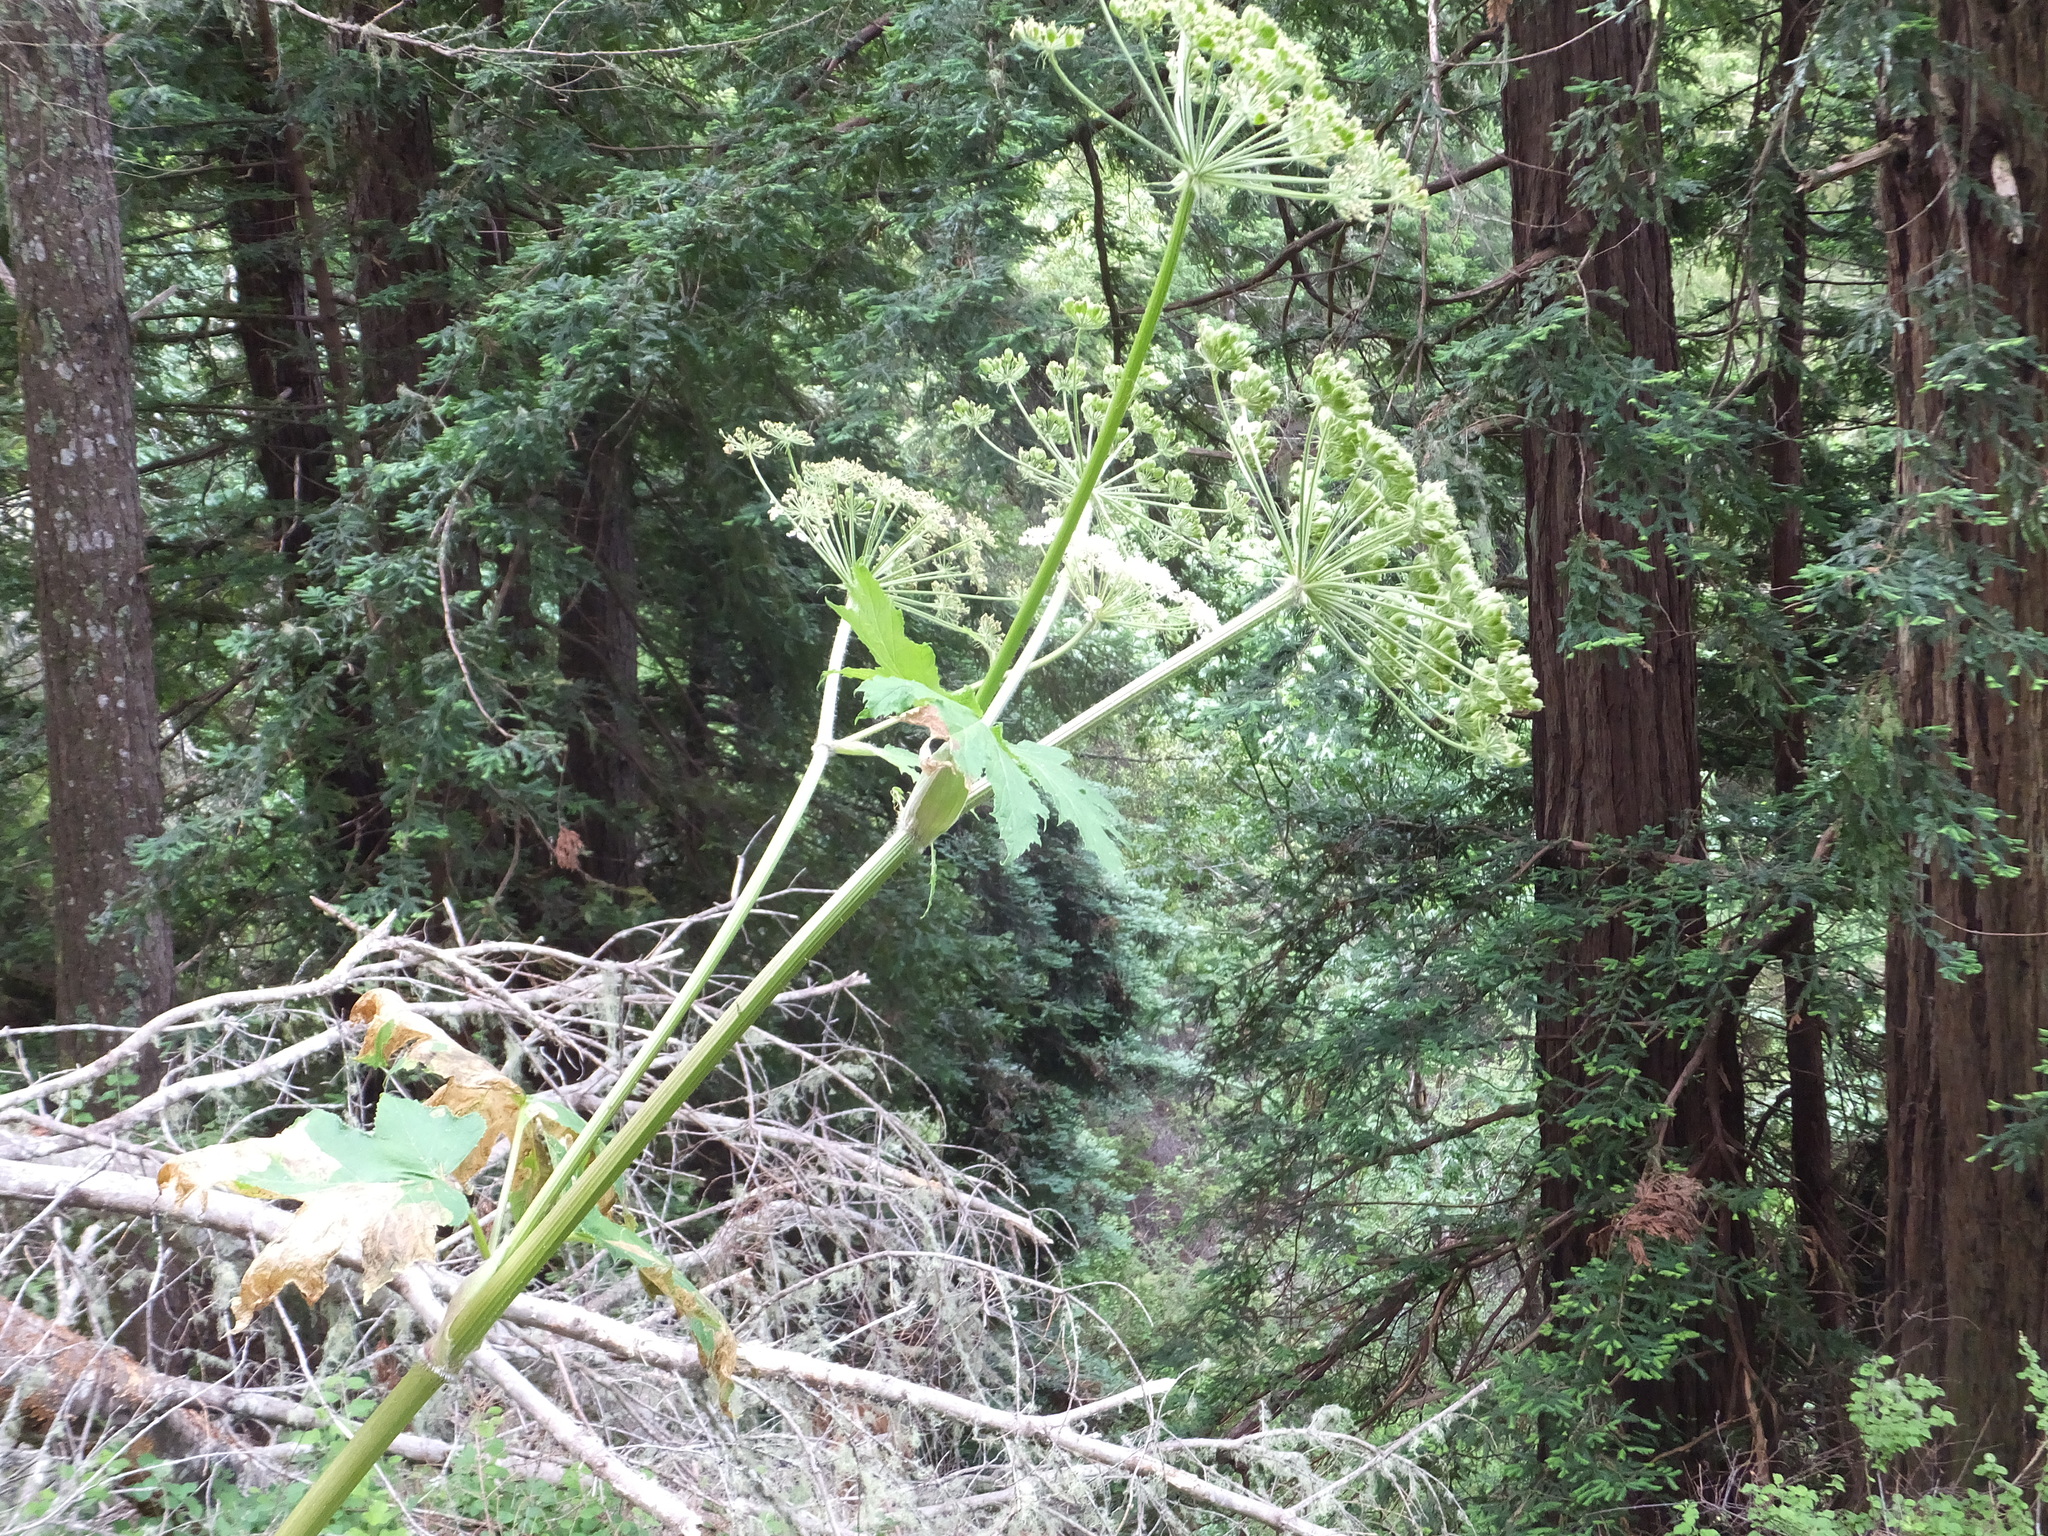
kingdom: Plantae
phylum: Tracheophyta
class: Magnoliopsida
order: Apiales
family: Apiaceae
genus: Heracleum
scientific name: Heracleum maximum
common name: American cow parsnip
